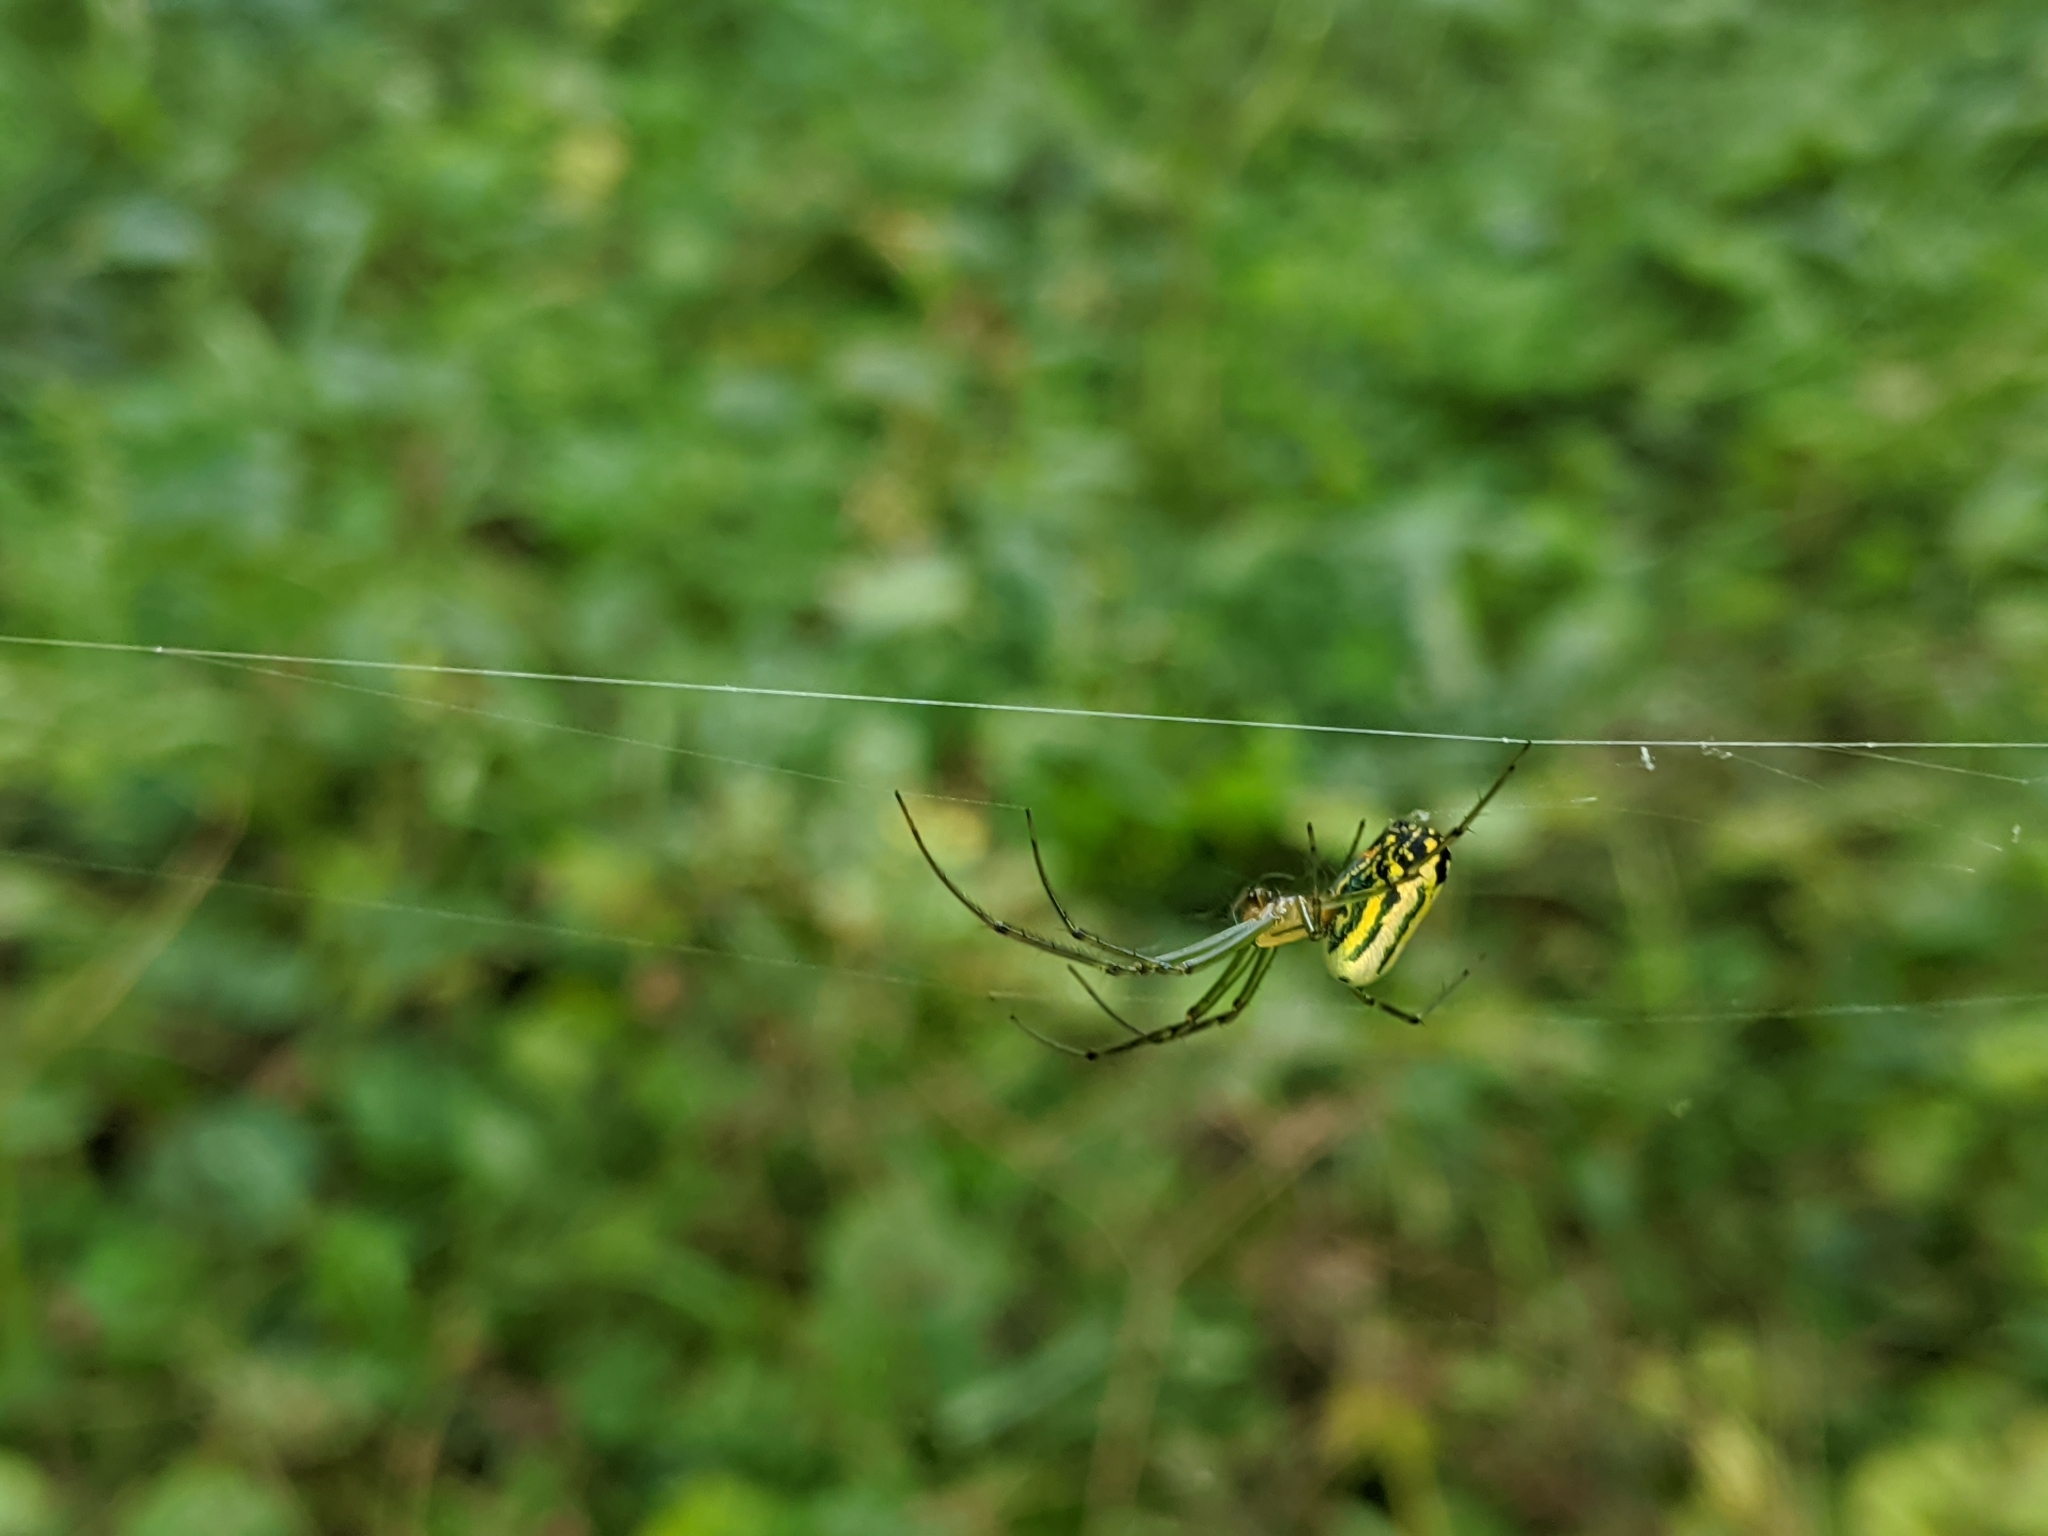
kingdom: Animalia
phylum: Arthropoda
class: Arachnida
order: Araneae
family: Tetragnathidae
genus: Leucauge
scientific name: Leucauge venusta
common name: Longjawed orb weavers
